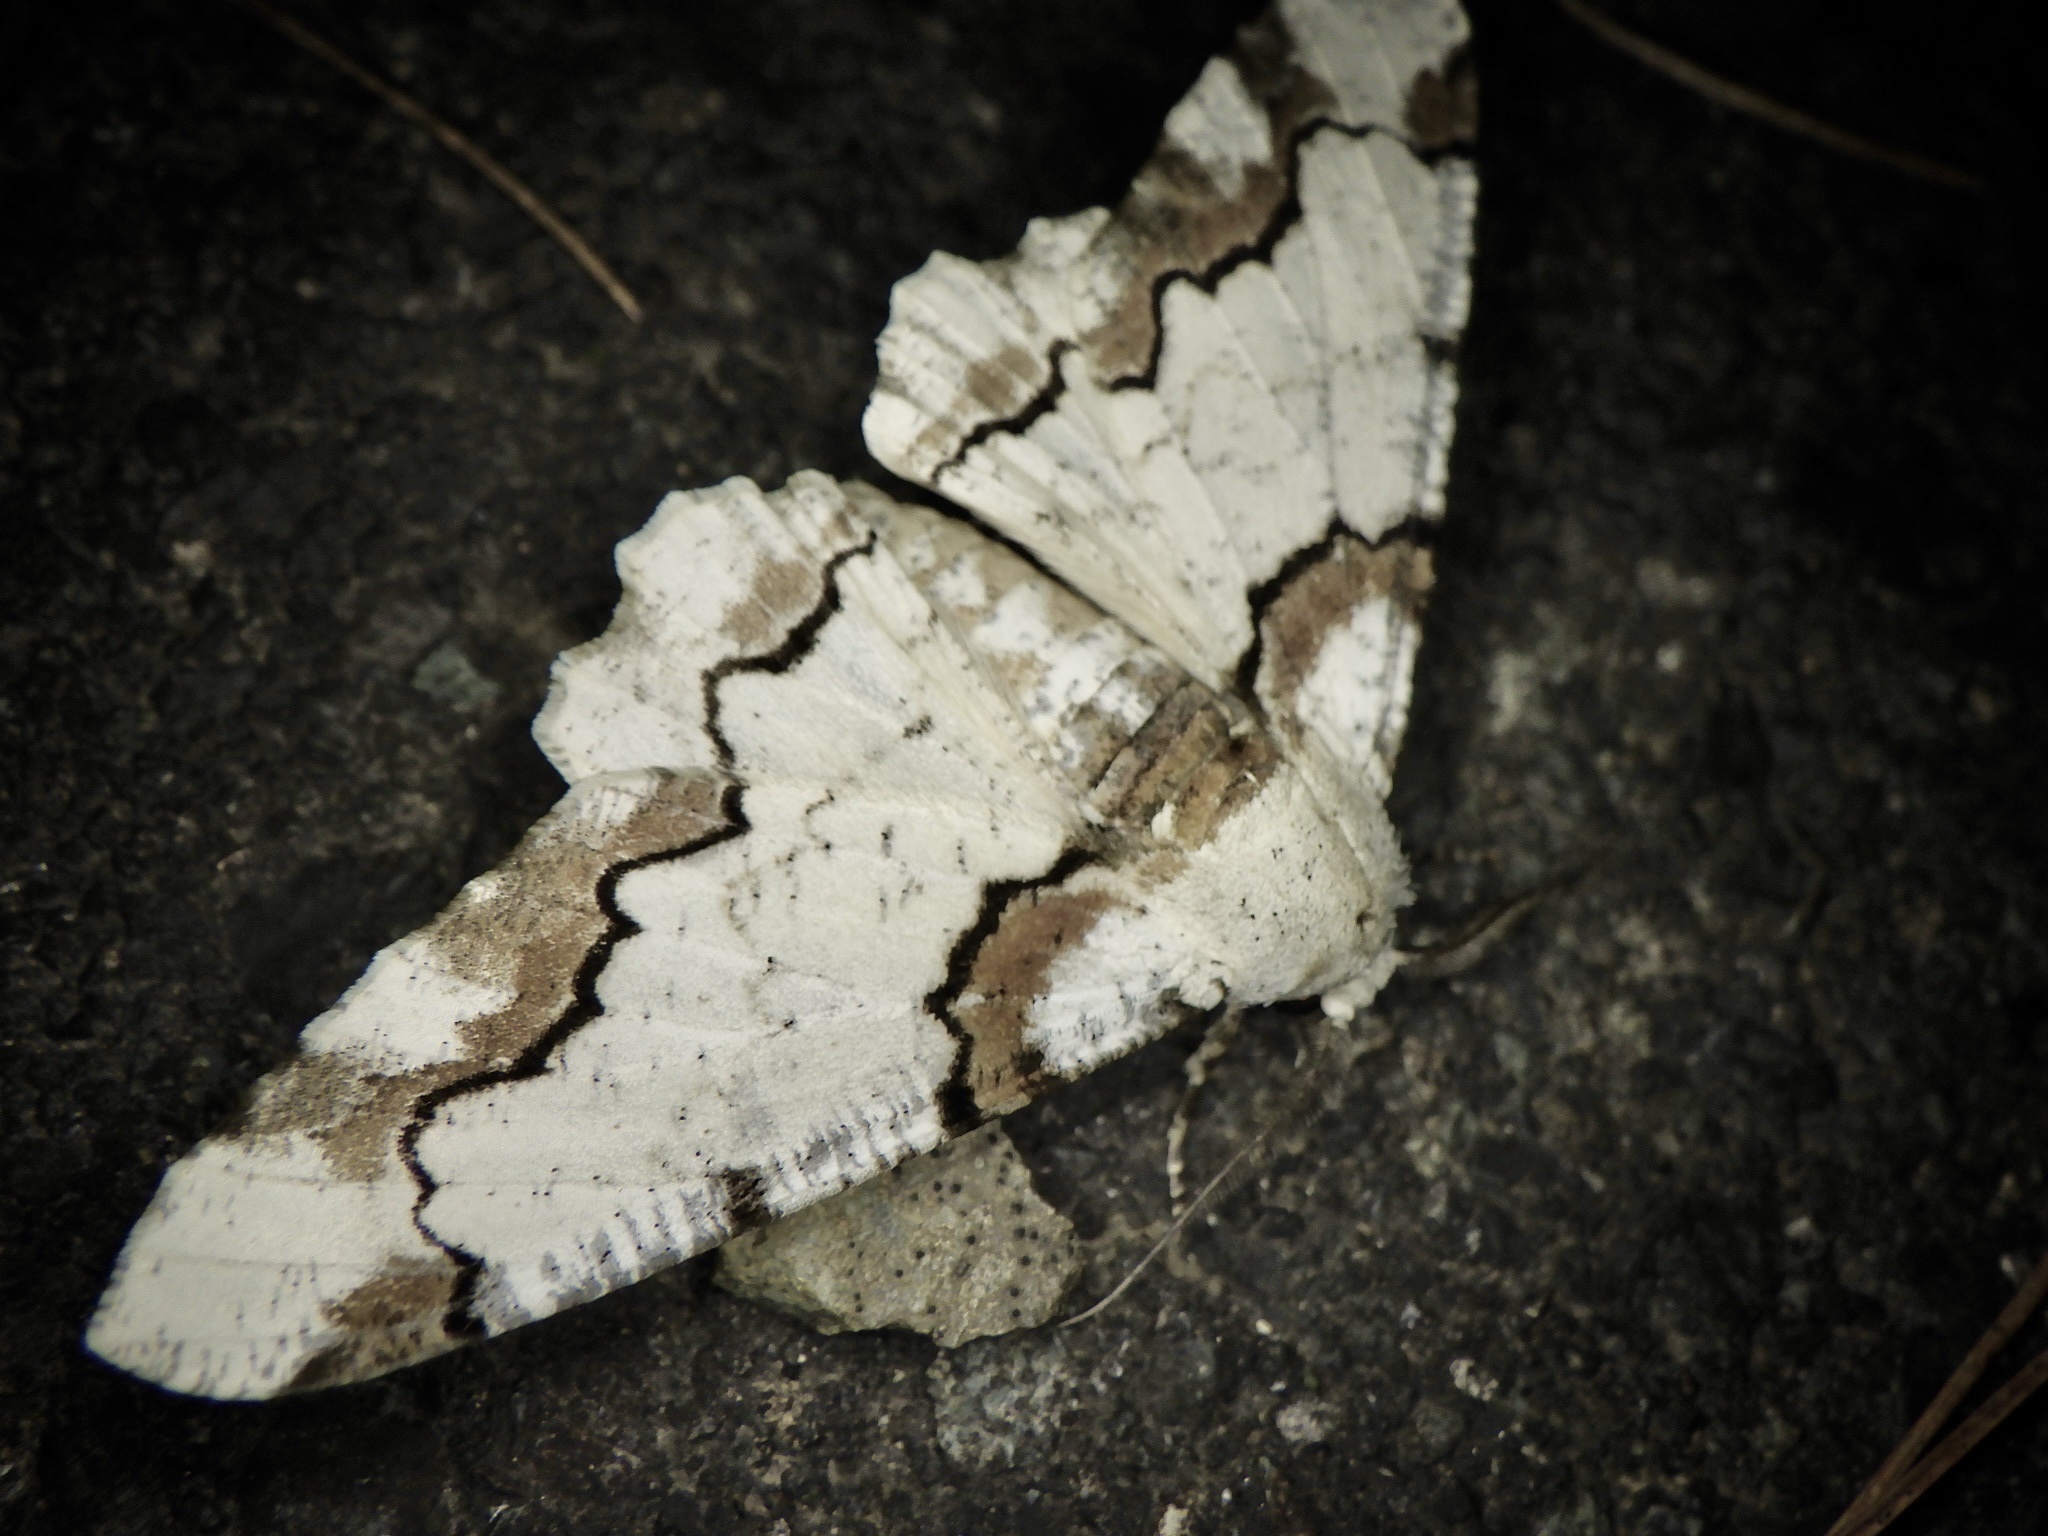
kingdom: Animalia
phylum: Arthropoda
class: Insecta
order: Lepidoptera
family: Geometridae
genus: Biston
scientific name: Biston regalis
